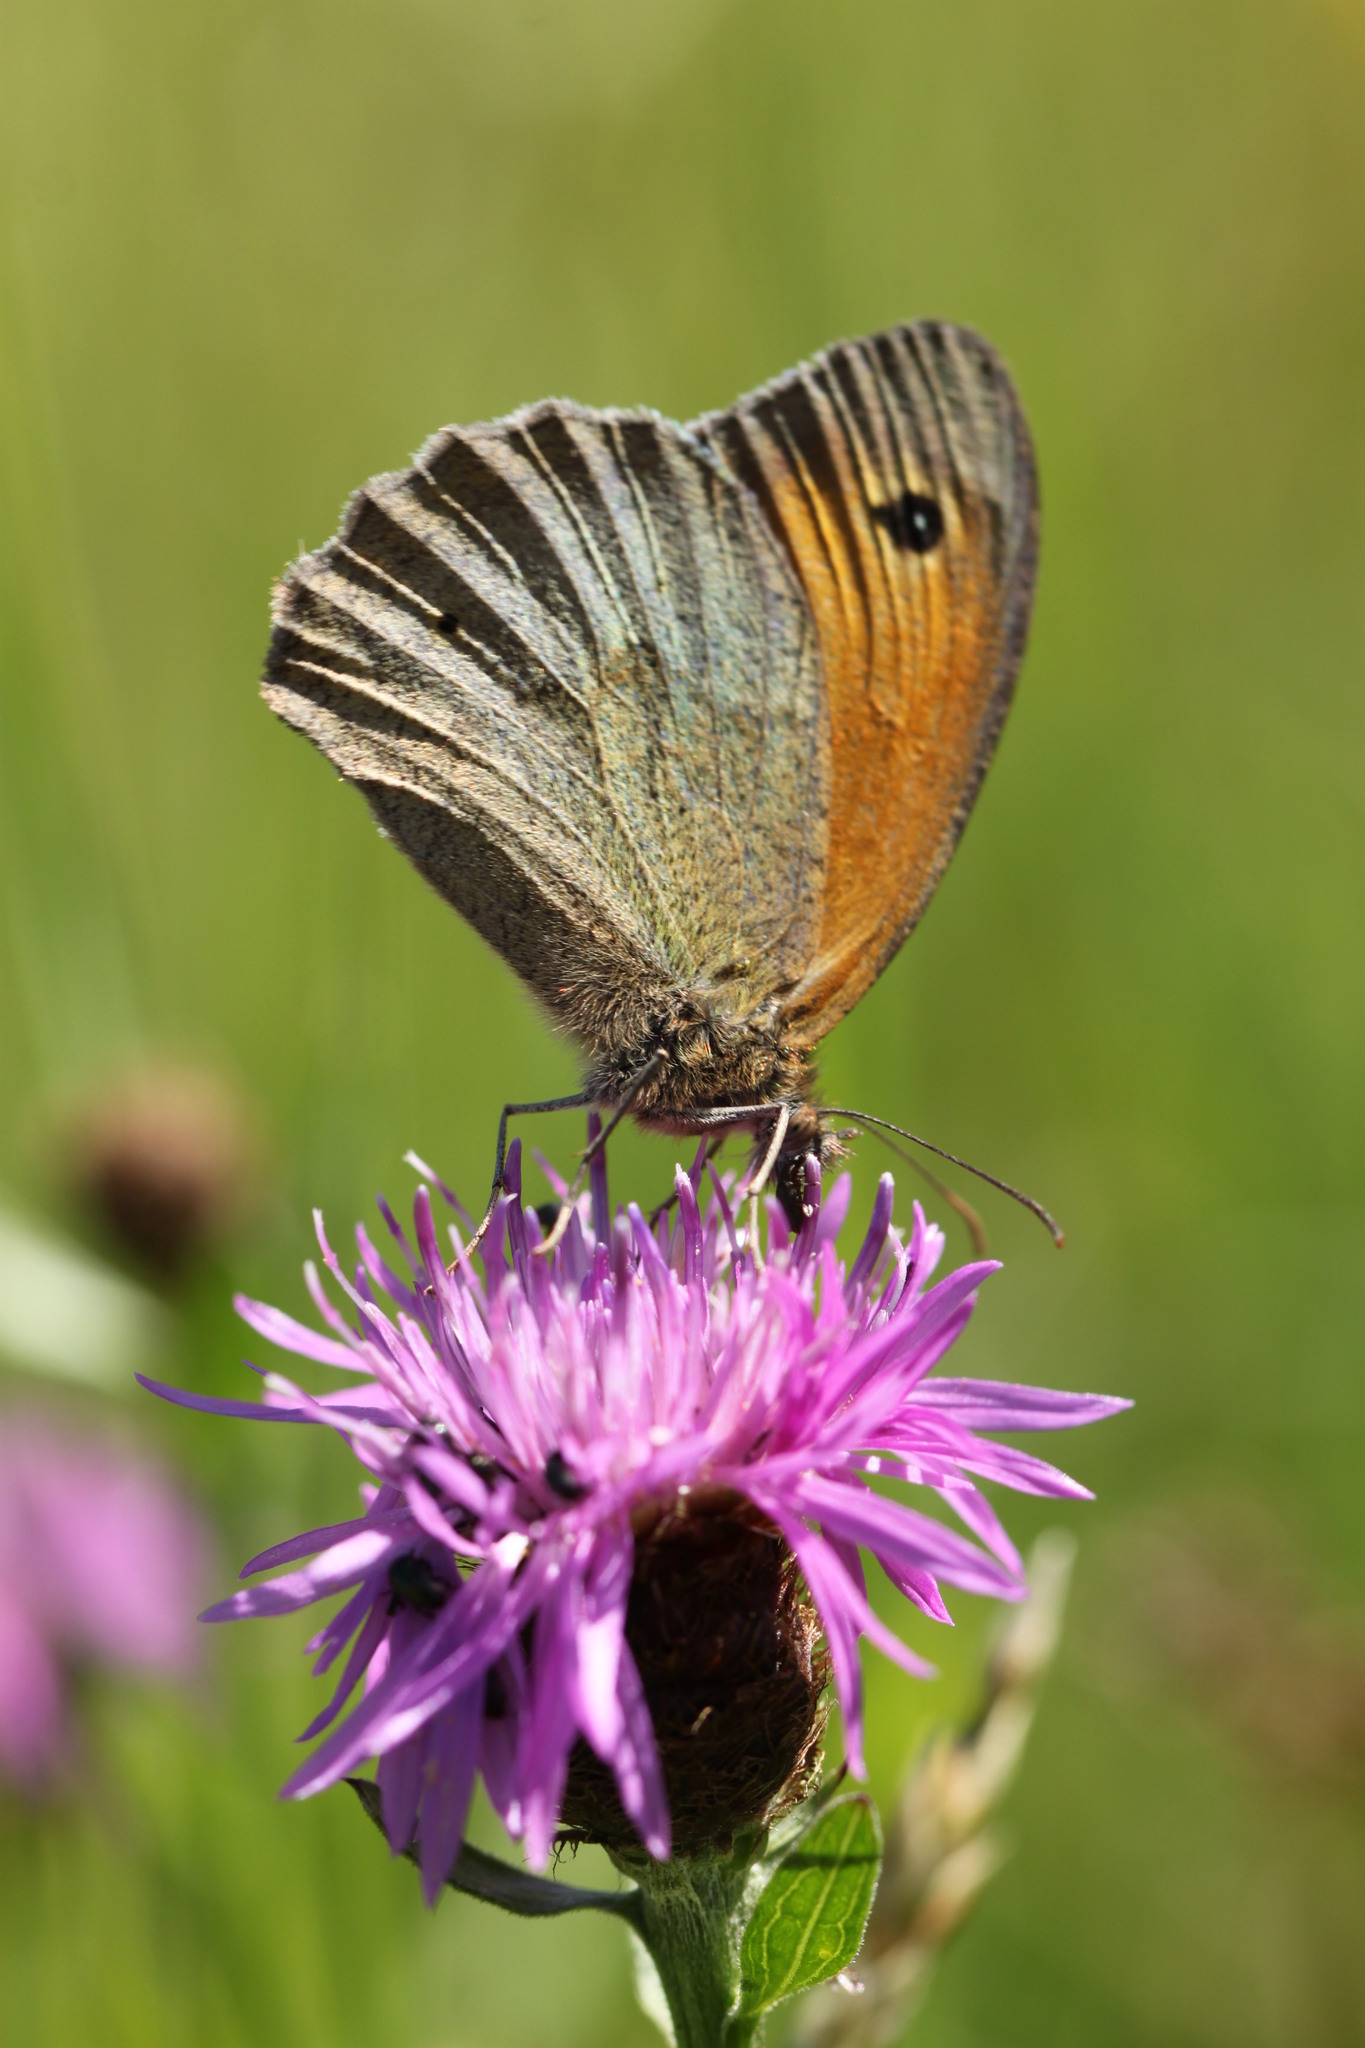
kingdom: Animalia
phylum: Arthropoda
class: Insecta
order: Lepidoptera
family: Nymphalidae
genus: Maniola
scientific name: Maniola jurtina
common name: Meadow brown
